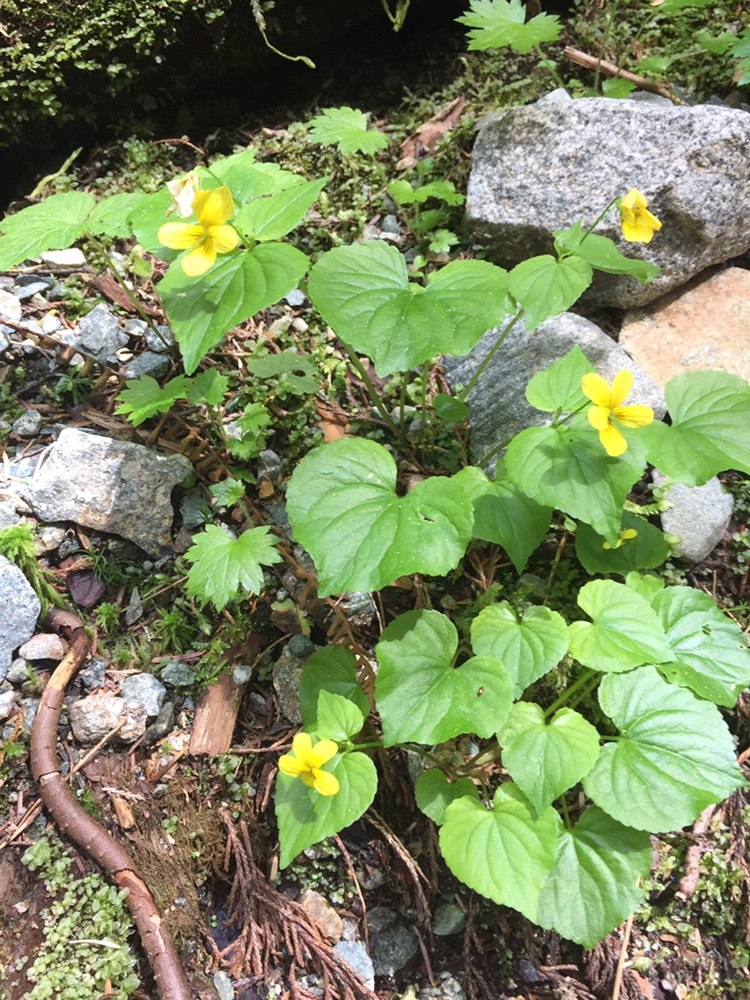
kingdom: Plantae
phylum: Tracheophyta
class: Magnoliopsida
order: Malpighiales
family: Violaceae
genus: Viola
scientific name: Viola glabella
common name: Stream violet
